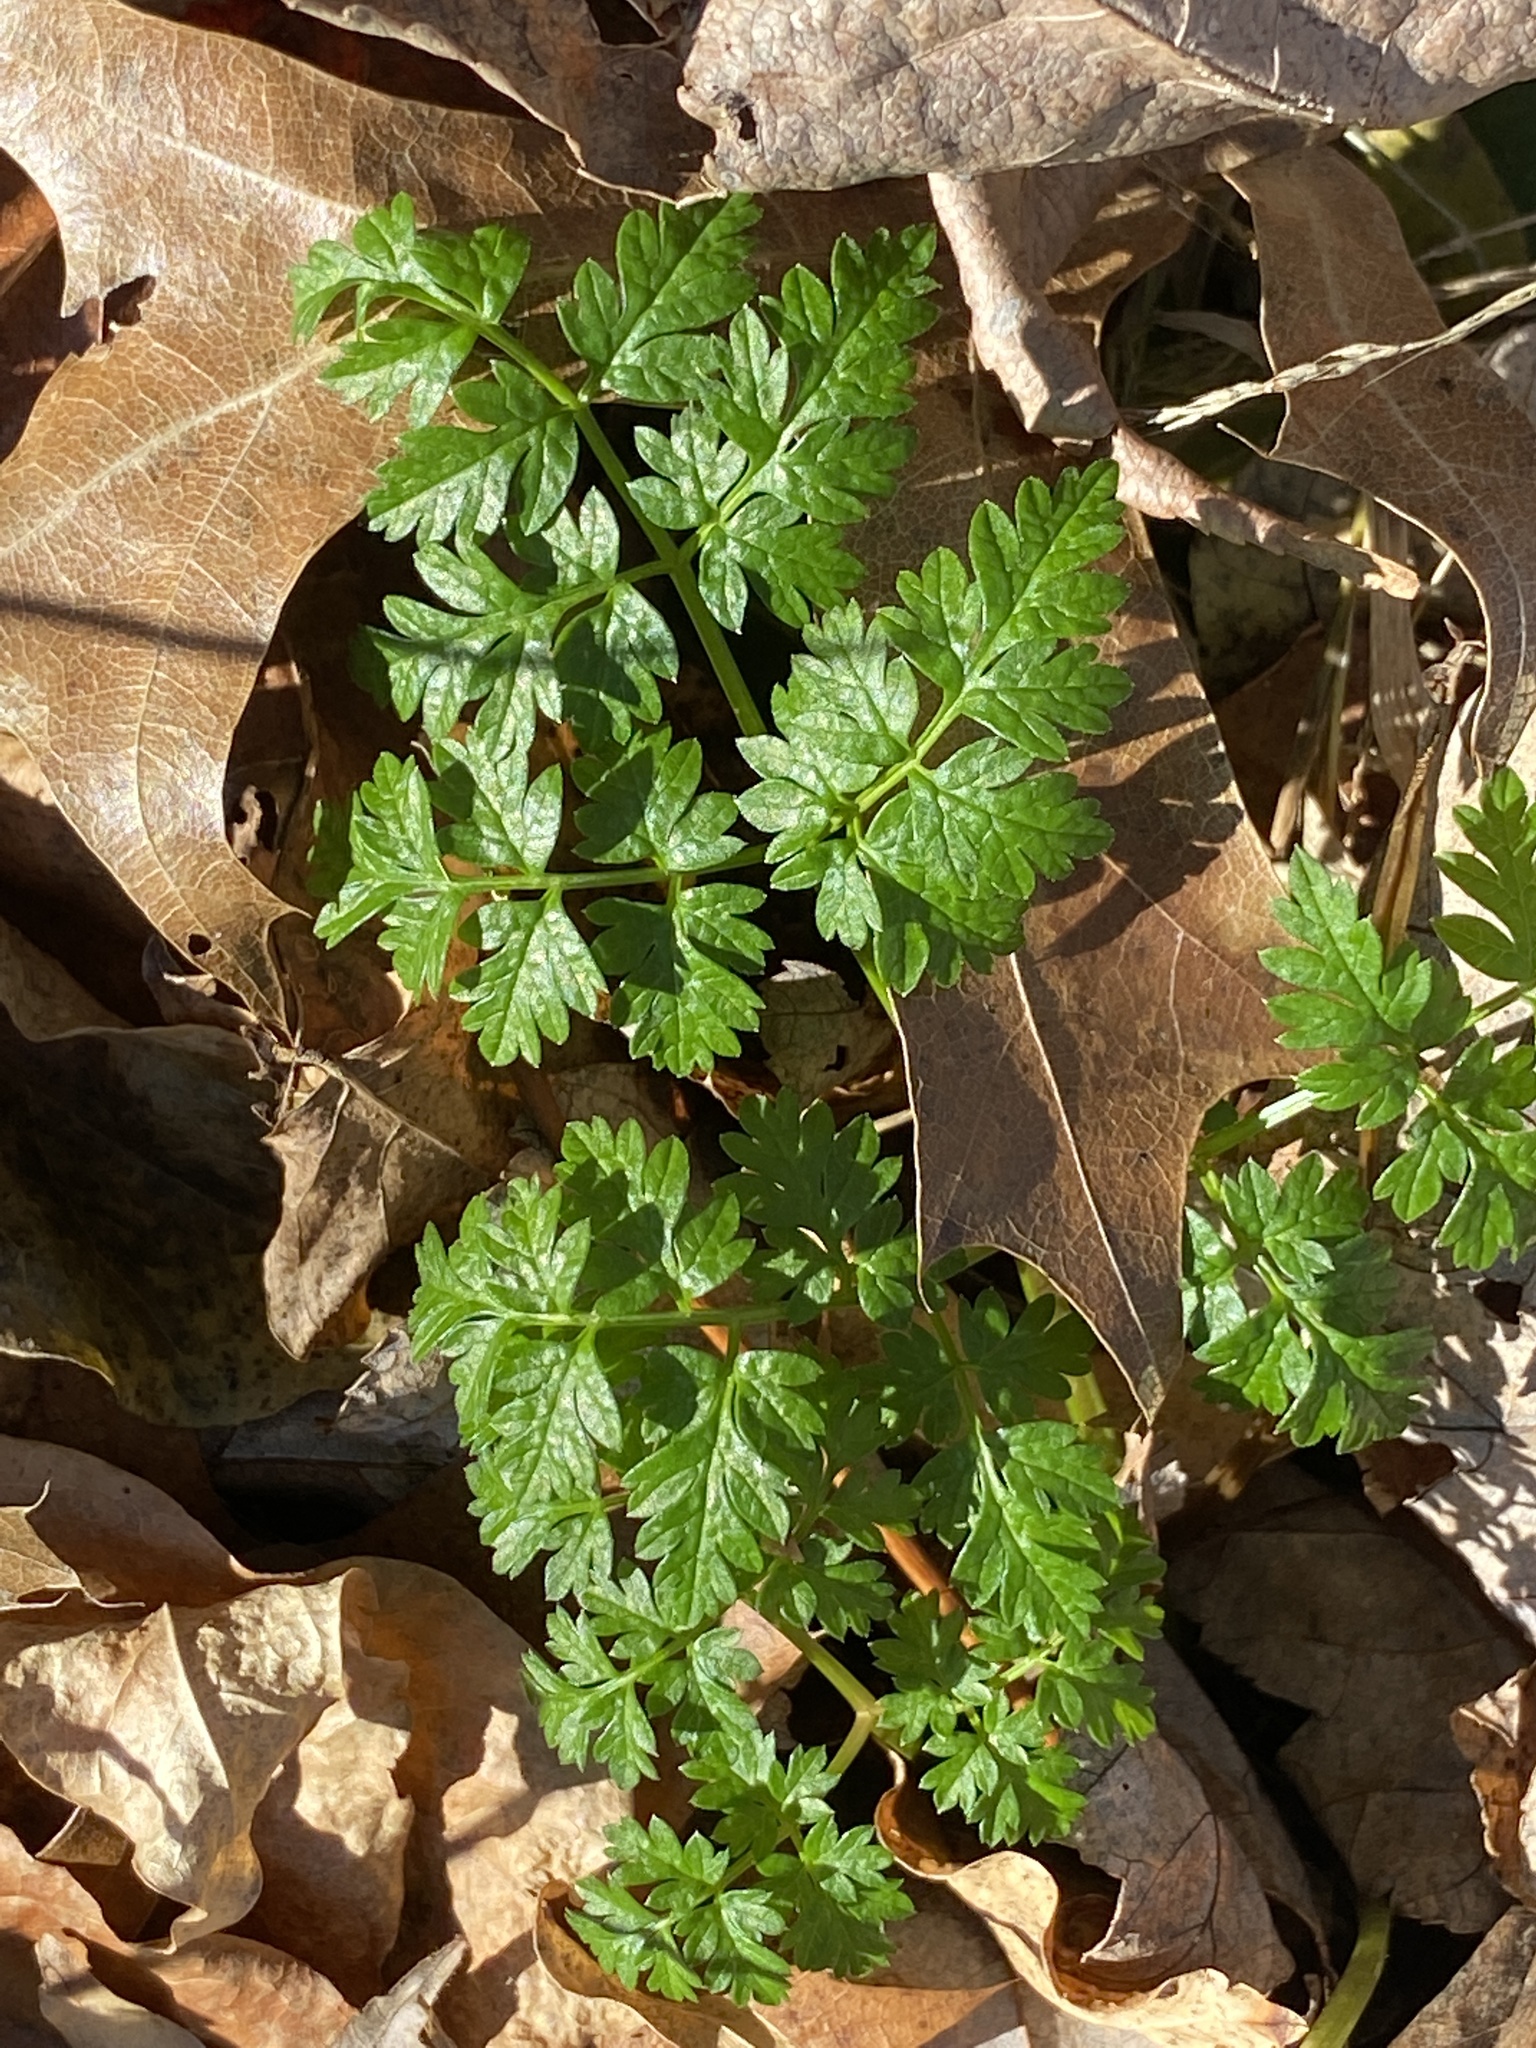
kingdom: Plantae
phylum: Tracheophyta
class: Magnoliopsida
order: Apiales
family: Apiaceae
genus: Conium
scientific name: Conium maculatum
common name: Hemlock
